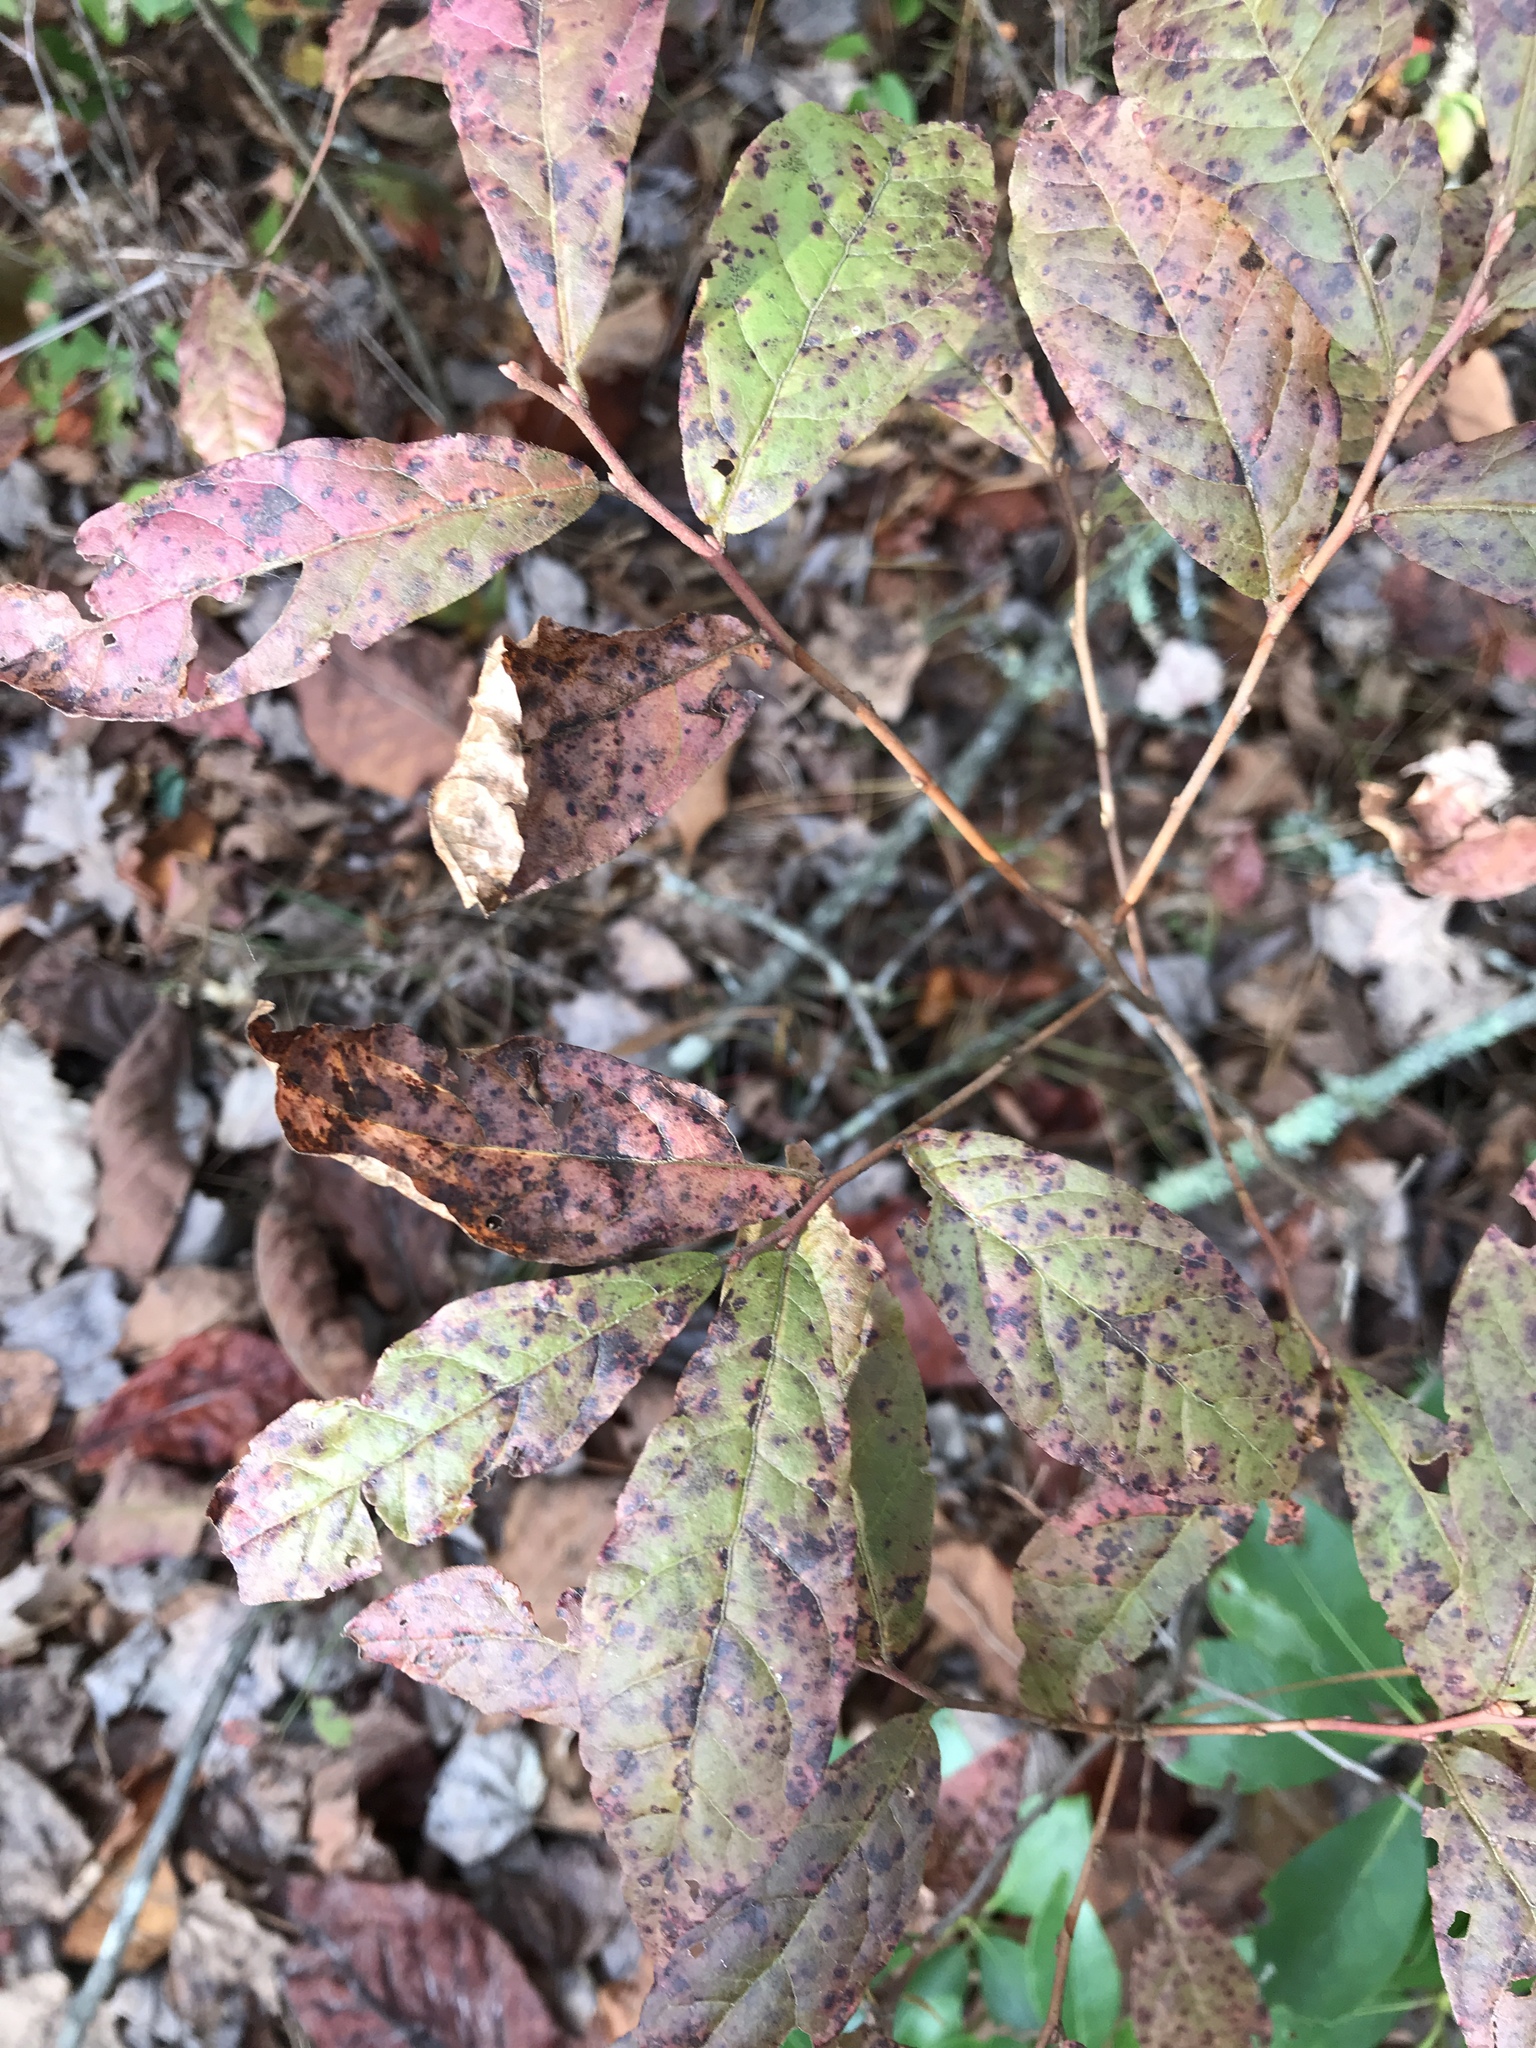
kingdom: Plantae
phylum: Tracheophyta
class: Magnoliopsida
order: Ericales
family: Ericaceae
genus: Gaylussacia
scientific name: Gaylussacia ursina
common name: Bear huckleberry
